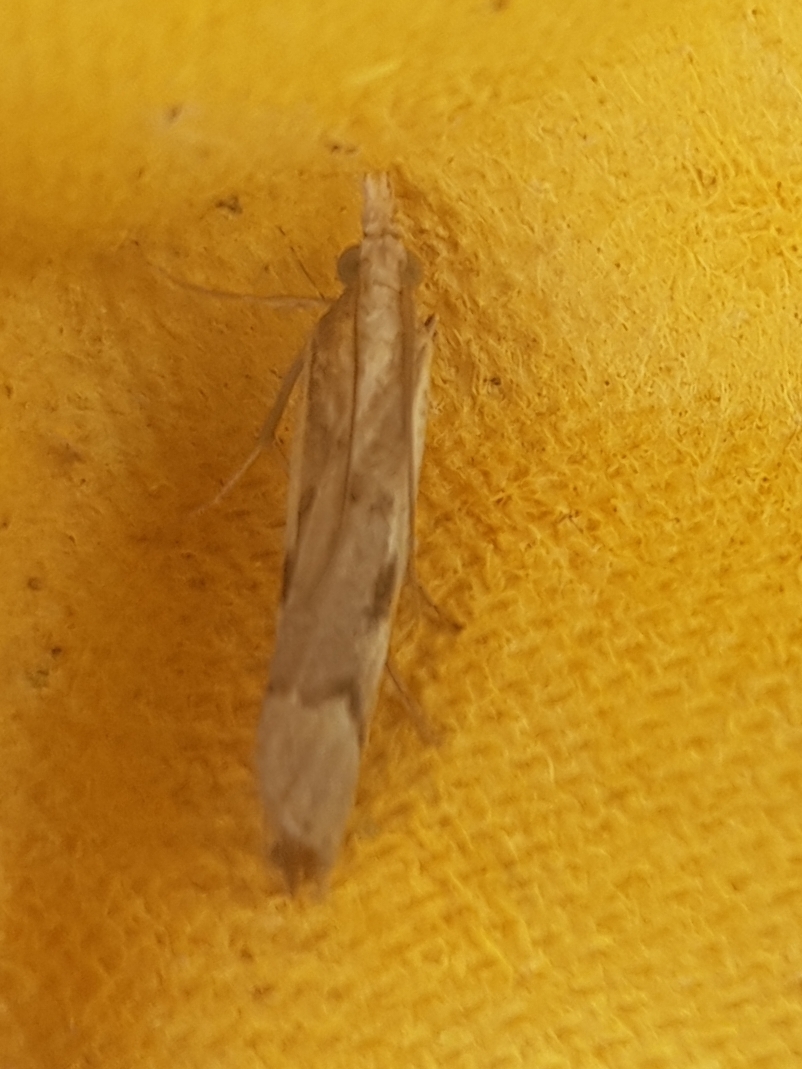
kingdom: Animalia
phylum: Arthropoda
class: Insecta
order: Lepidoptera
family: Crambidae
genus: Agriphila
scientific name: Agriphila geniculea
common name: Elbow-stripe grass-veneer
